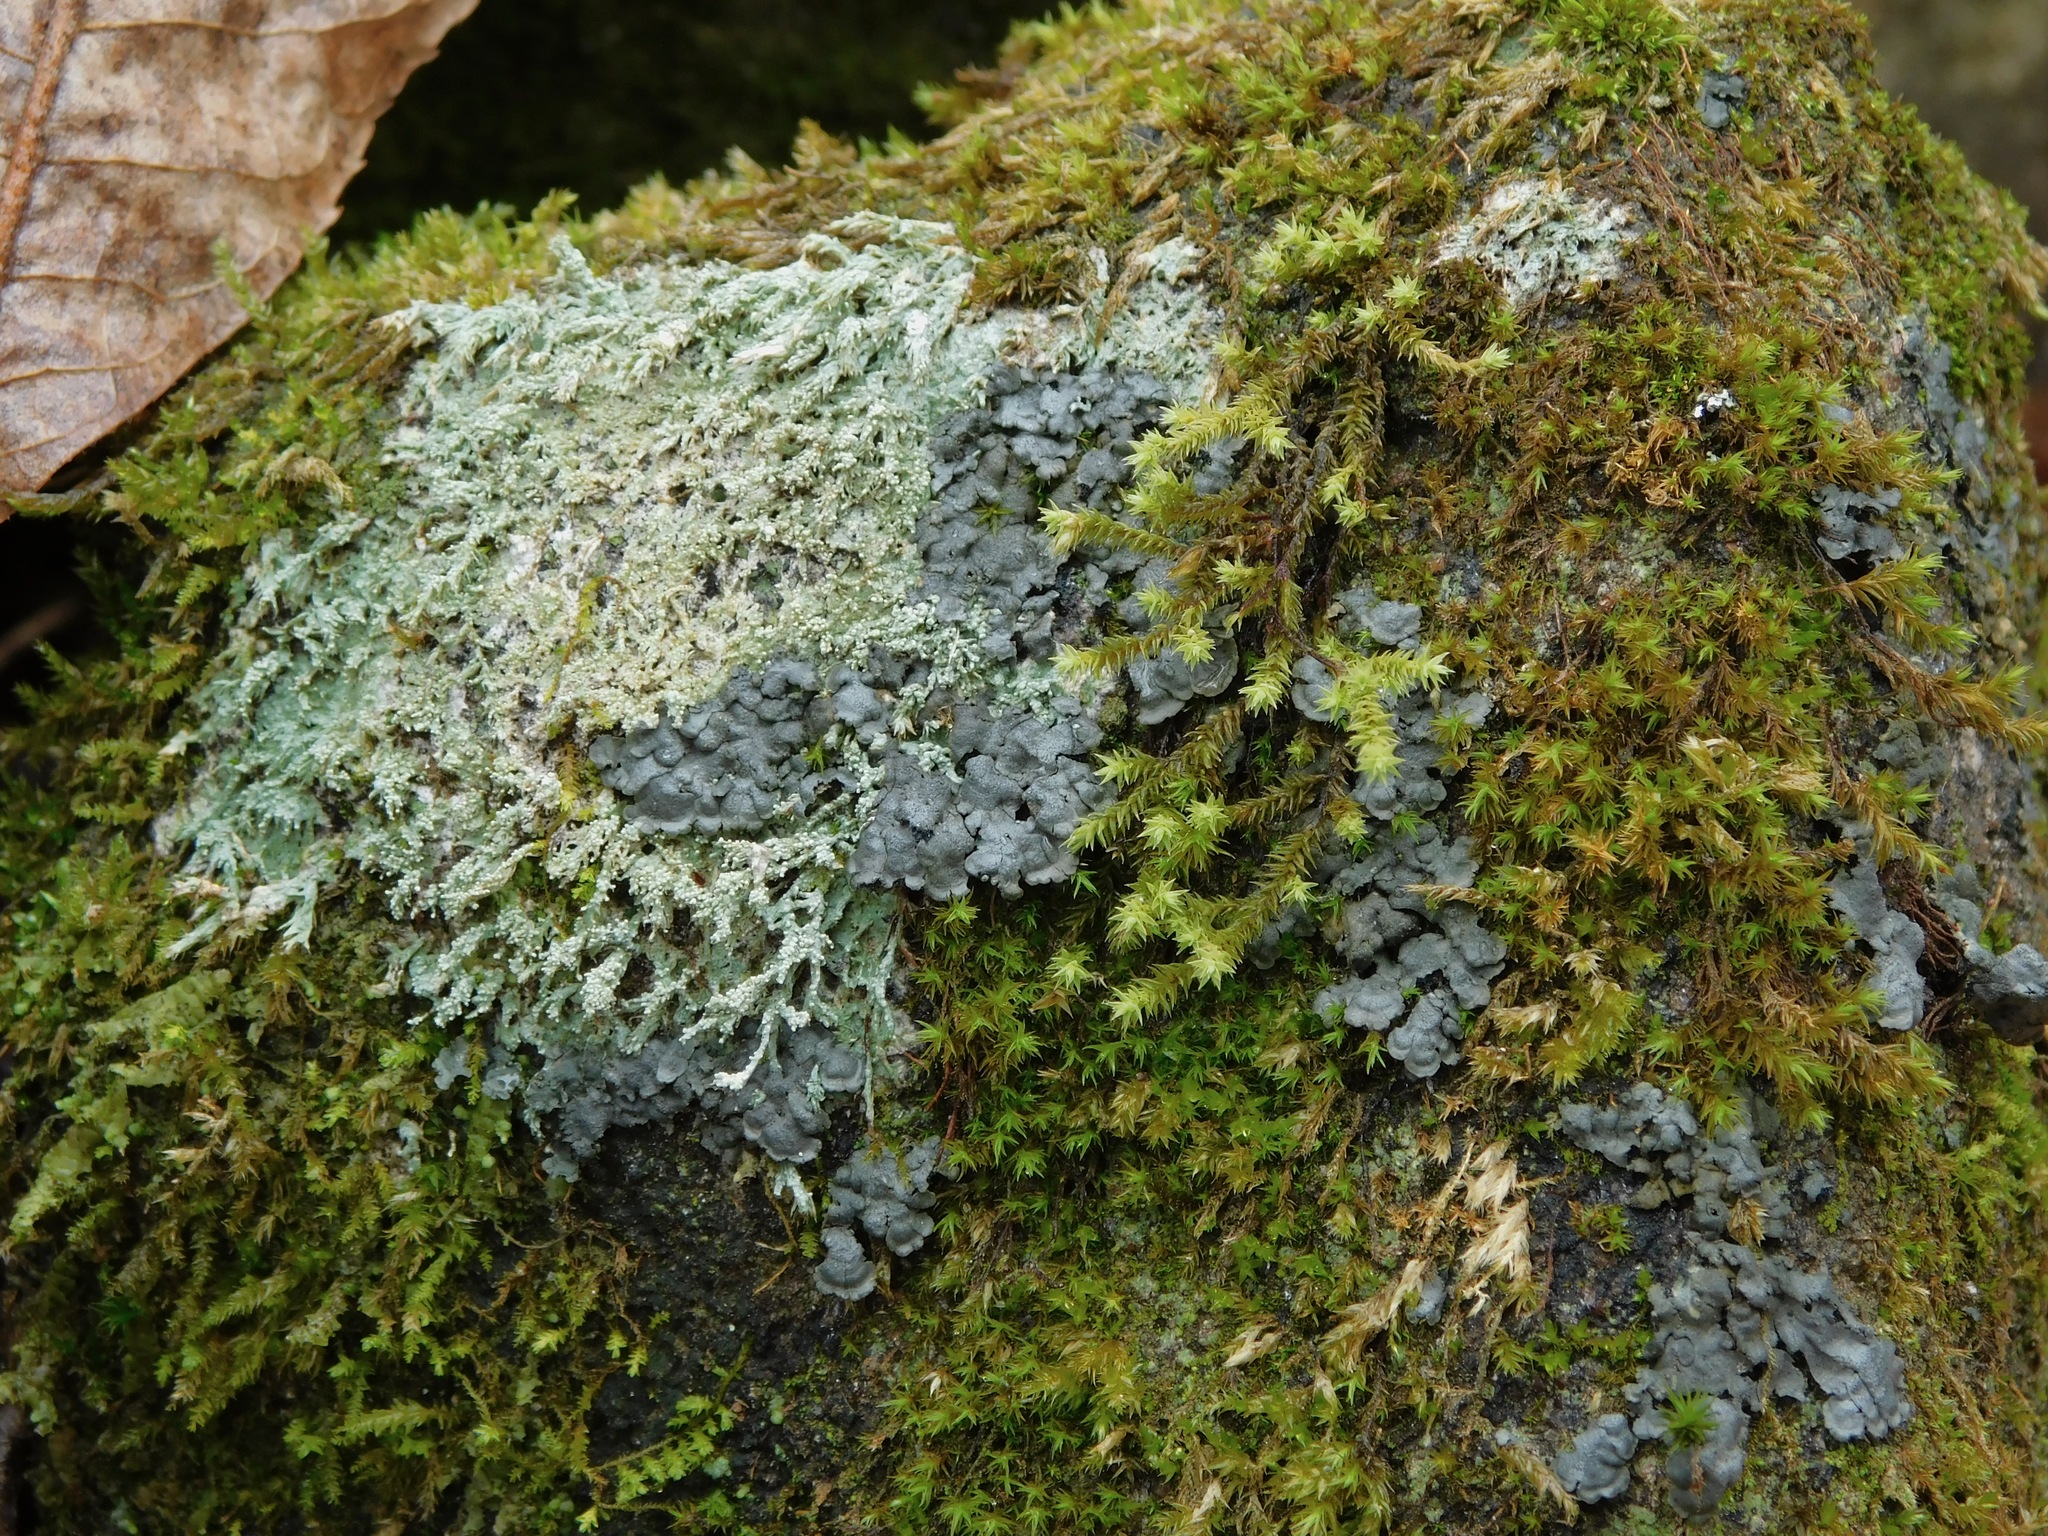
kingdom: Fungi
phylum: Ascomycota
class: Lecanoromycetes
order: Peltigerales
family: Coccocarpiaceae
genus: Coccocarpia
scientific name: Coccocarpia palmicola
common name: Salted shell lichen
